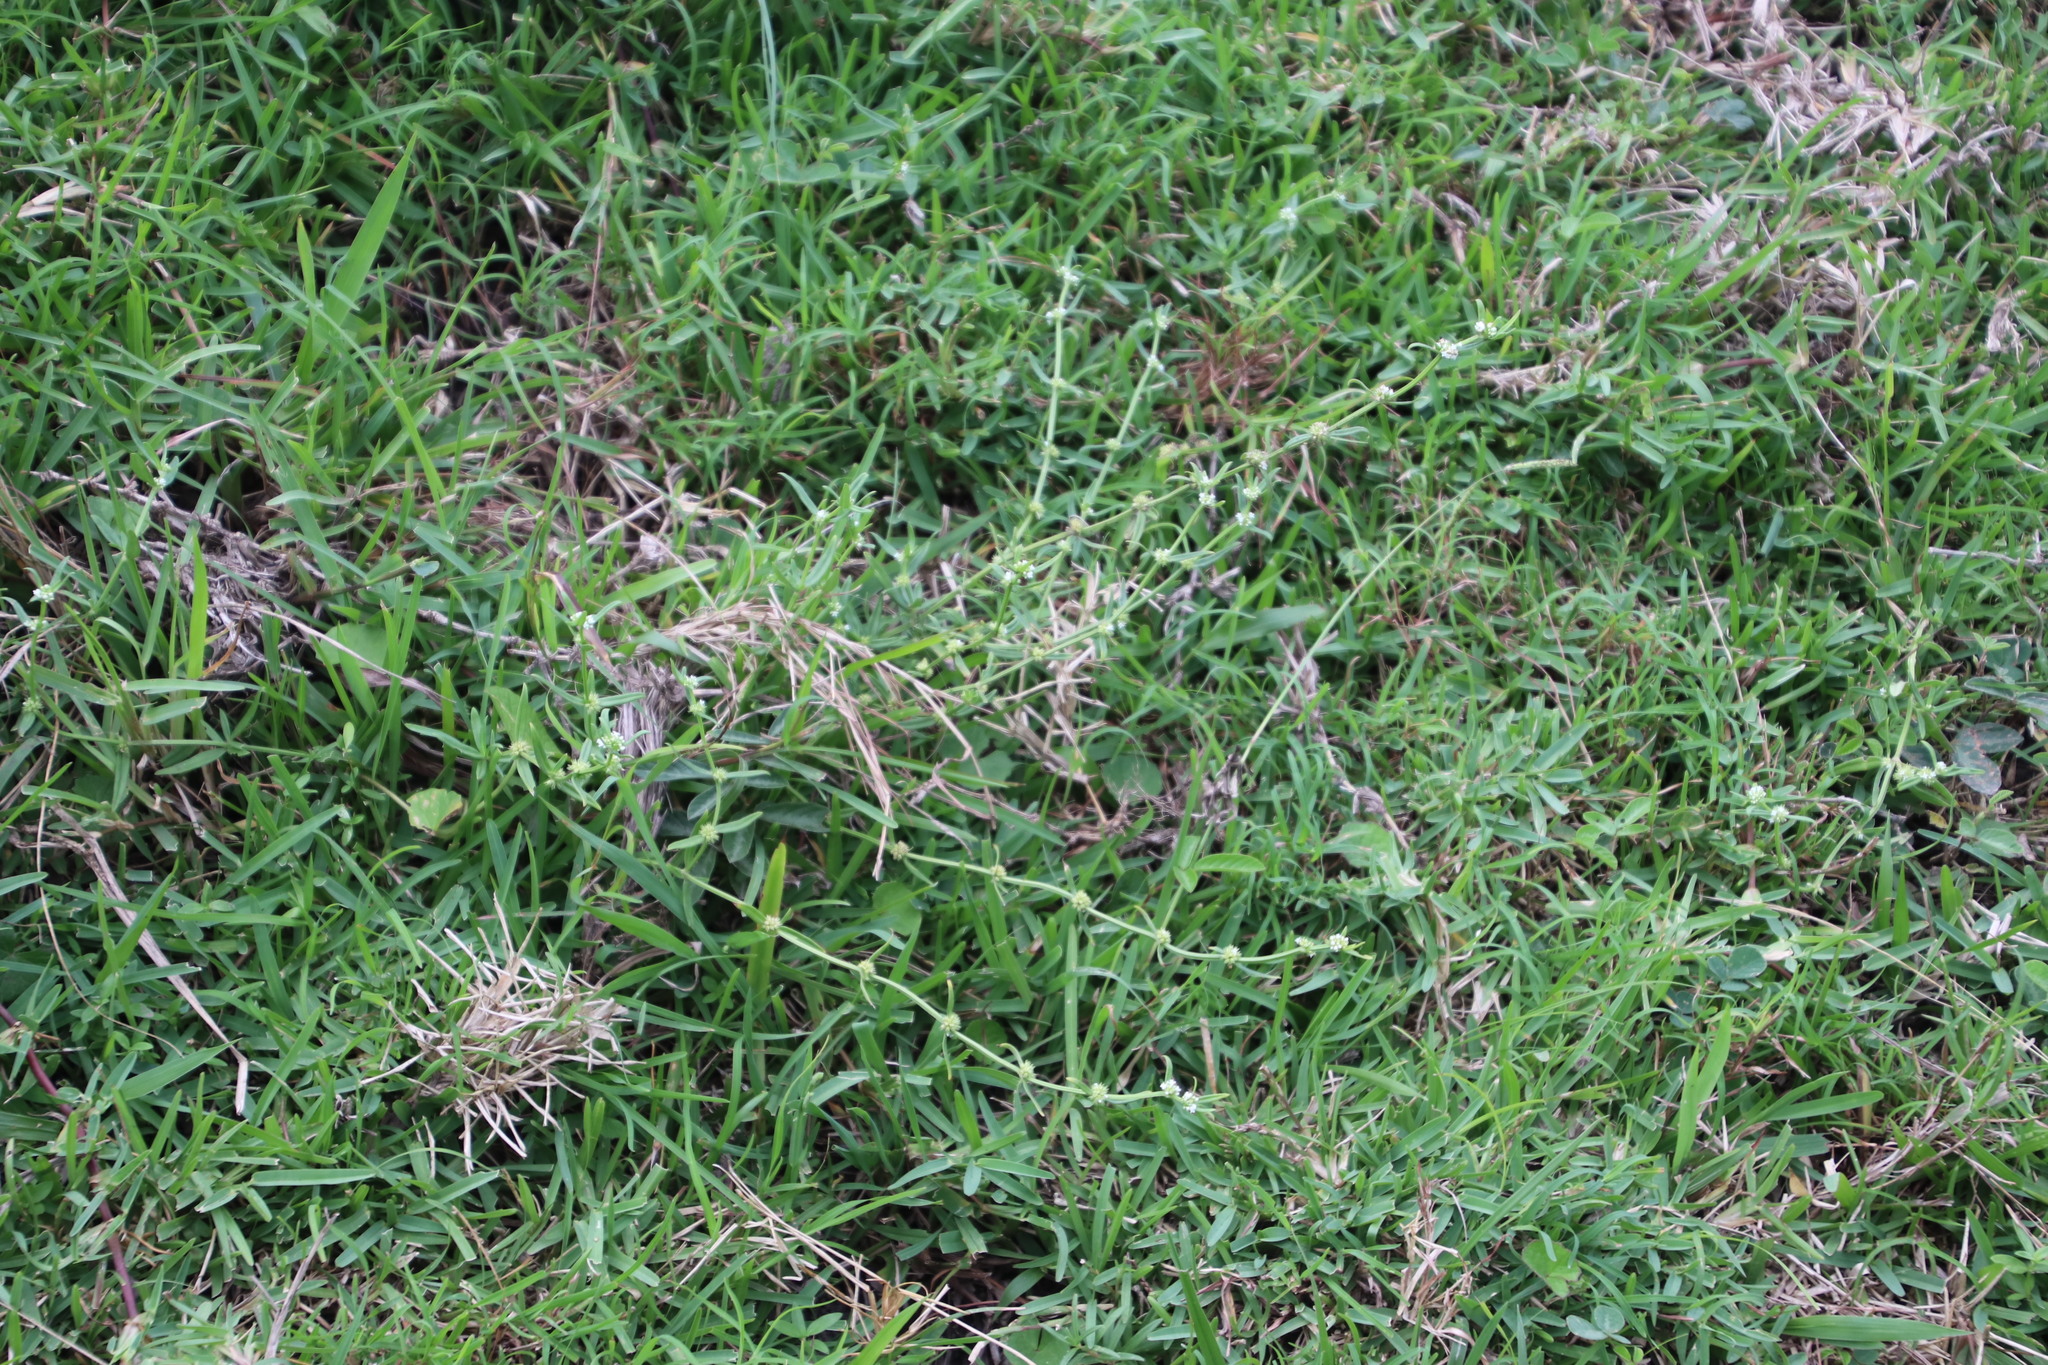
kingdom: Plantae
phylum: Tracheophyta
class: Magnoliopsida
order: Gentianales
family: Rubiaceae
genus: Spermacoce
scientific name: Spermacoce natalensis
